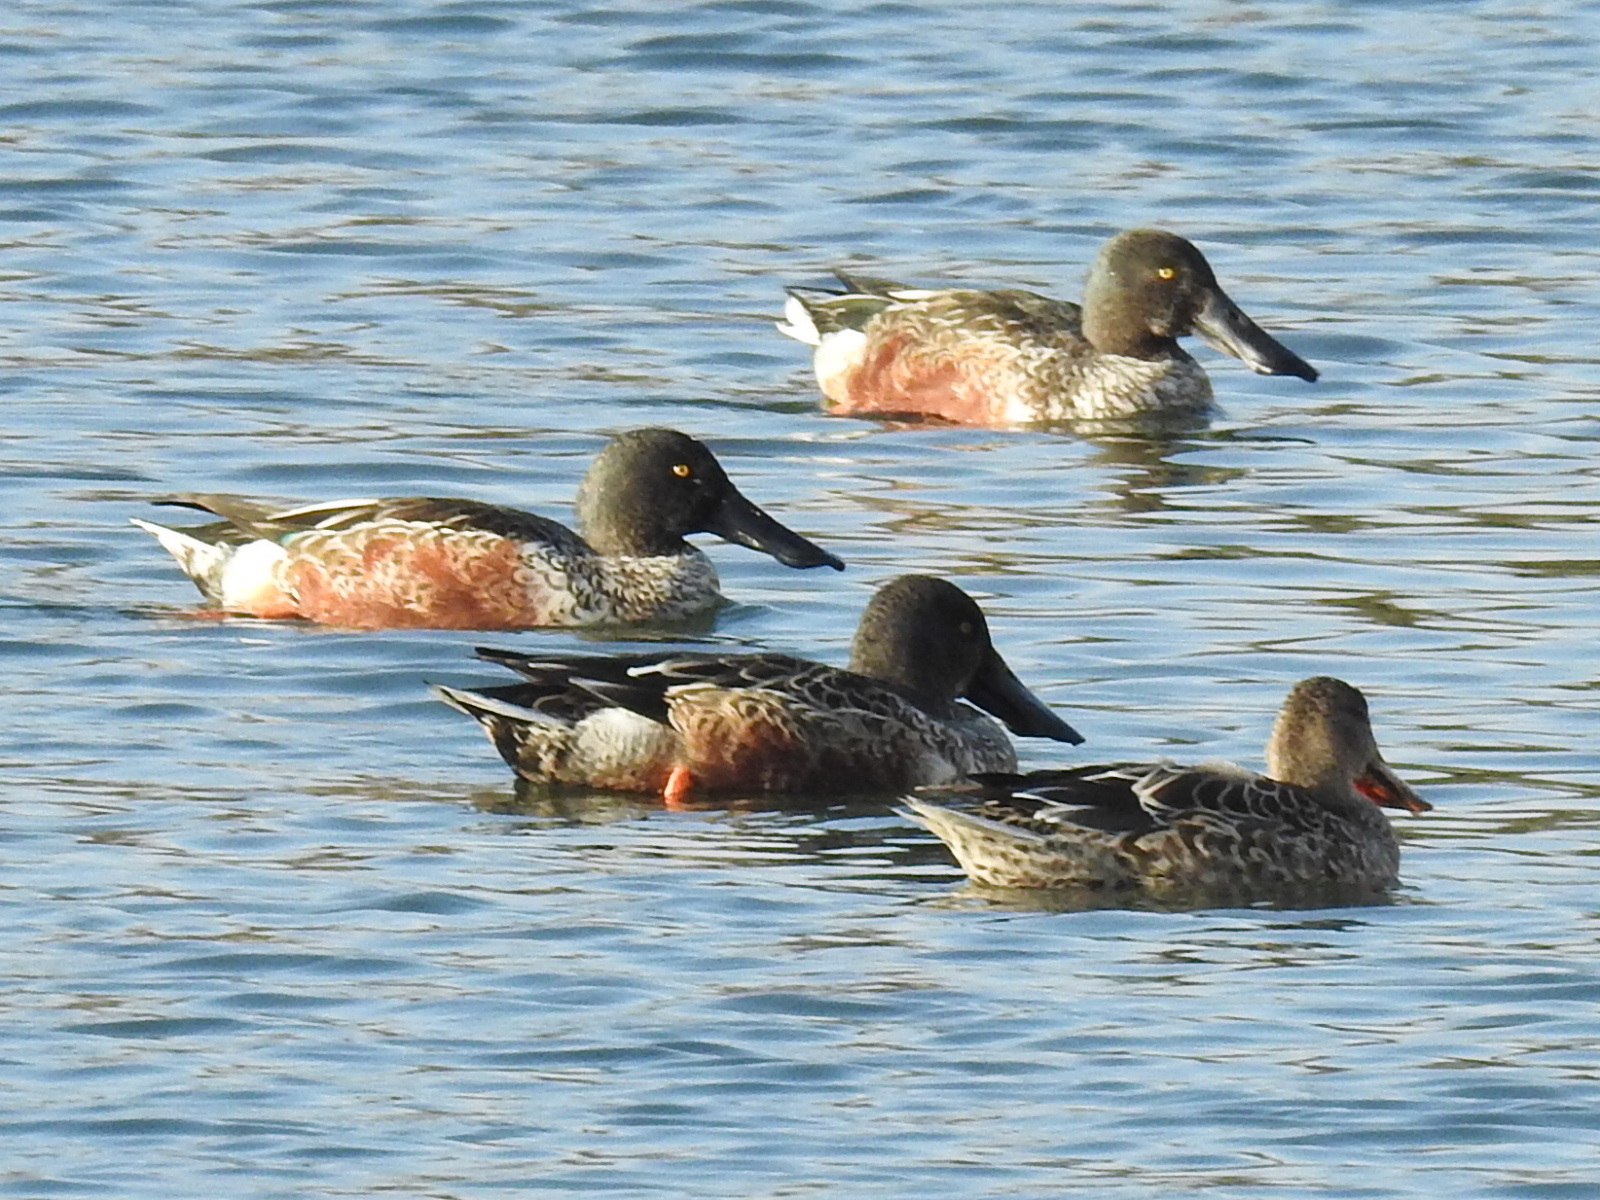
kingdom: Animalia
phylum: Chordata
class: Aves
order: Anseriformes
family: Anatidae
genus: Spatula
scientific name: Spatula clypeata
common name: Northern shoveler
